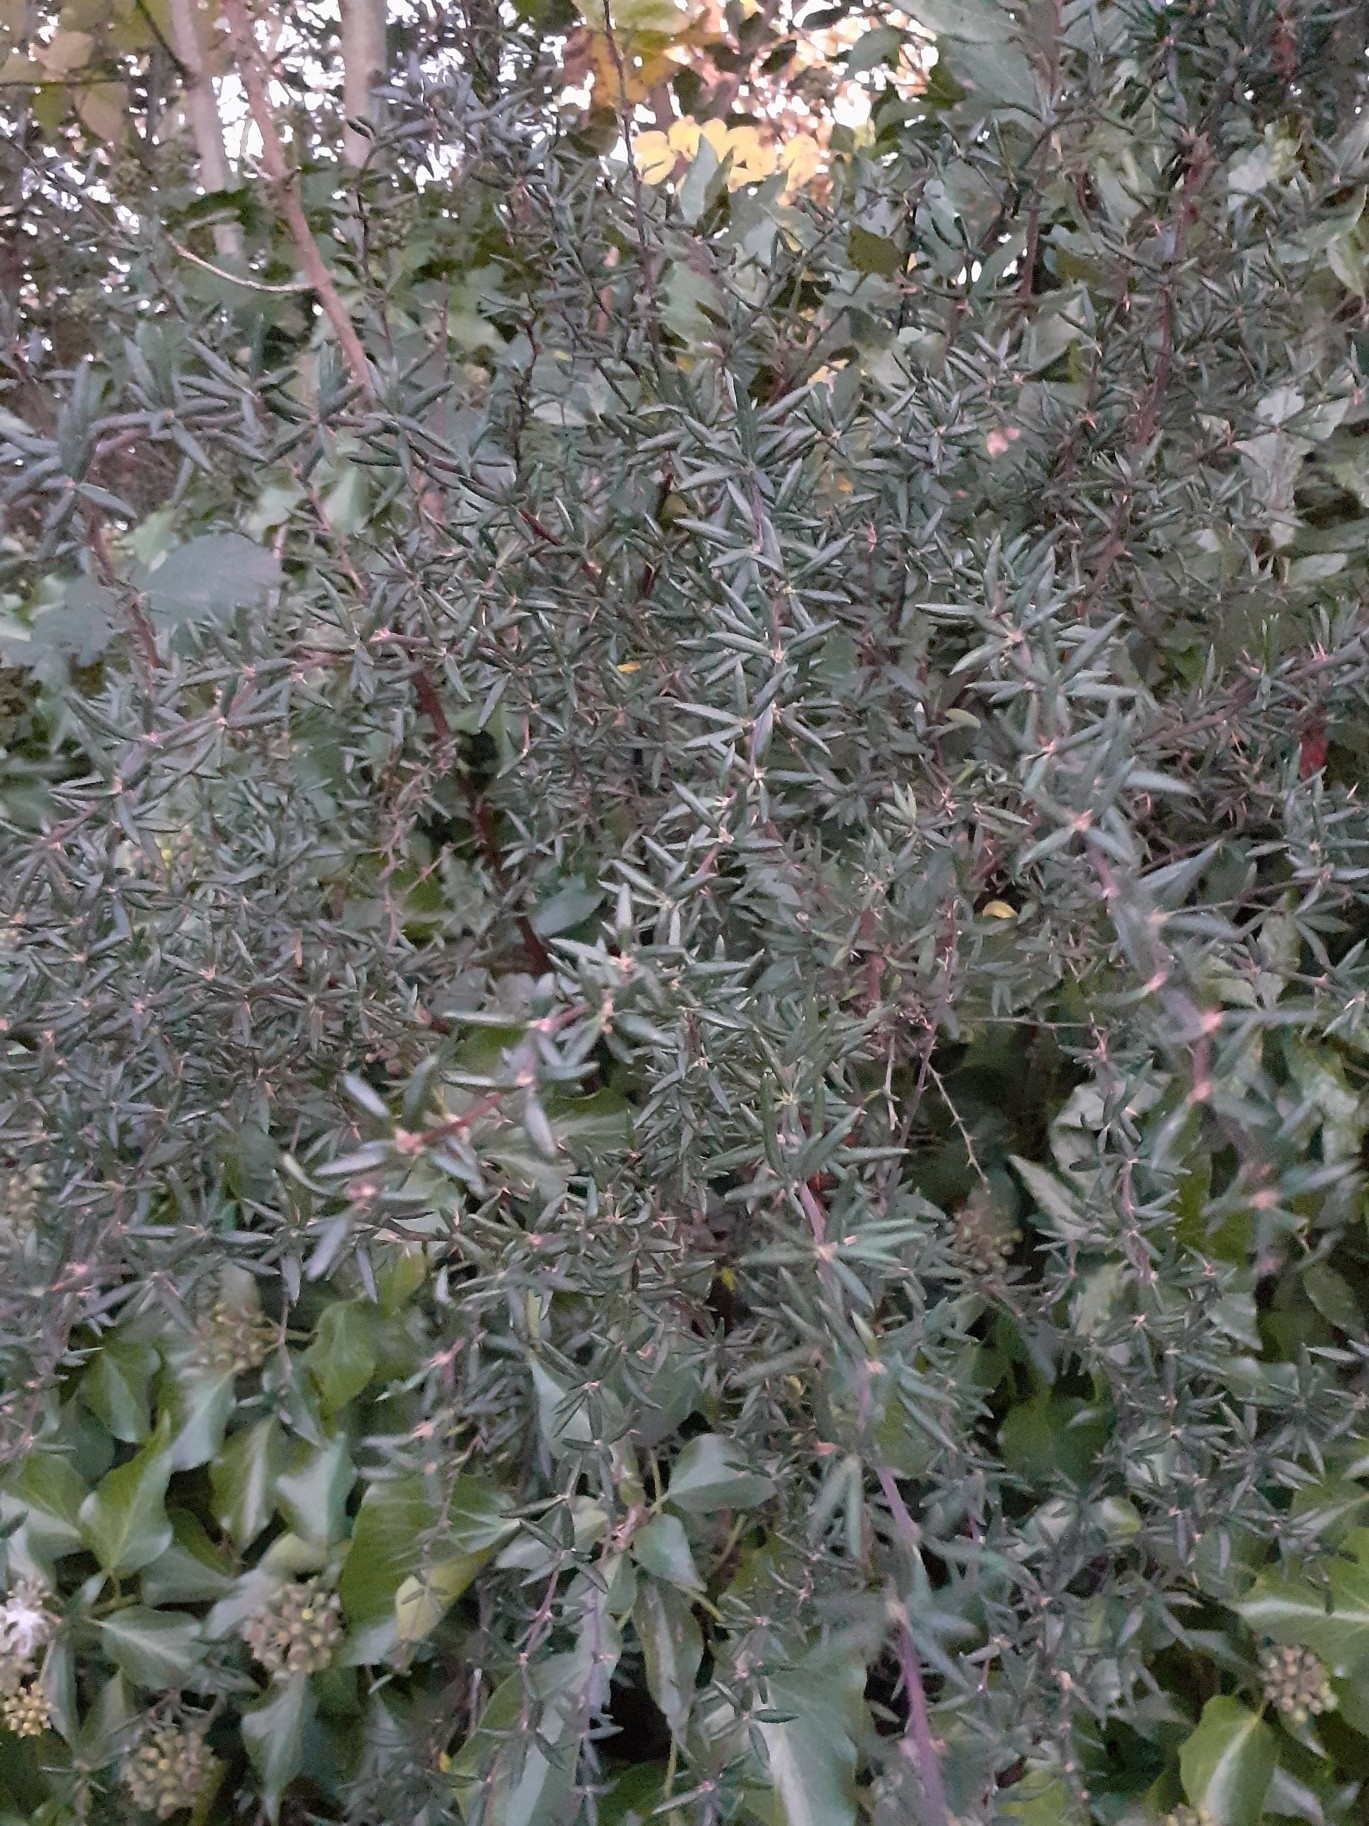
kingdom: Plantae
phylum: Tracheophyta
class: Magnoliopsida
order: Ranunculales
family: Berberidaceae
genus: Berberis
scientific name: Berberis stenophylla
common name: Hedge barberry
